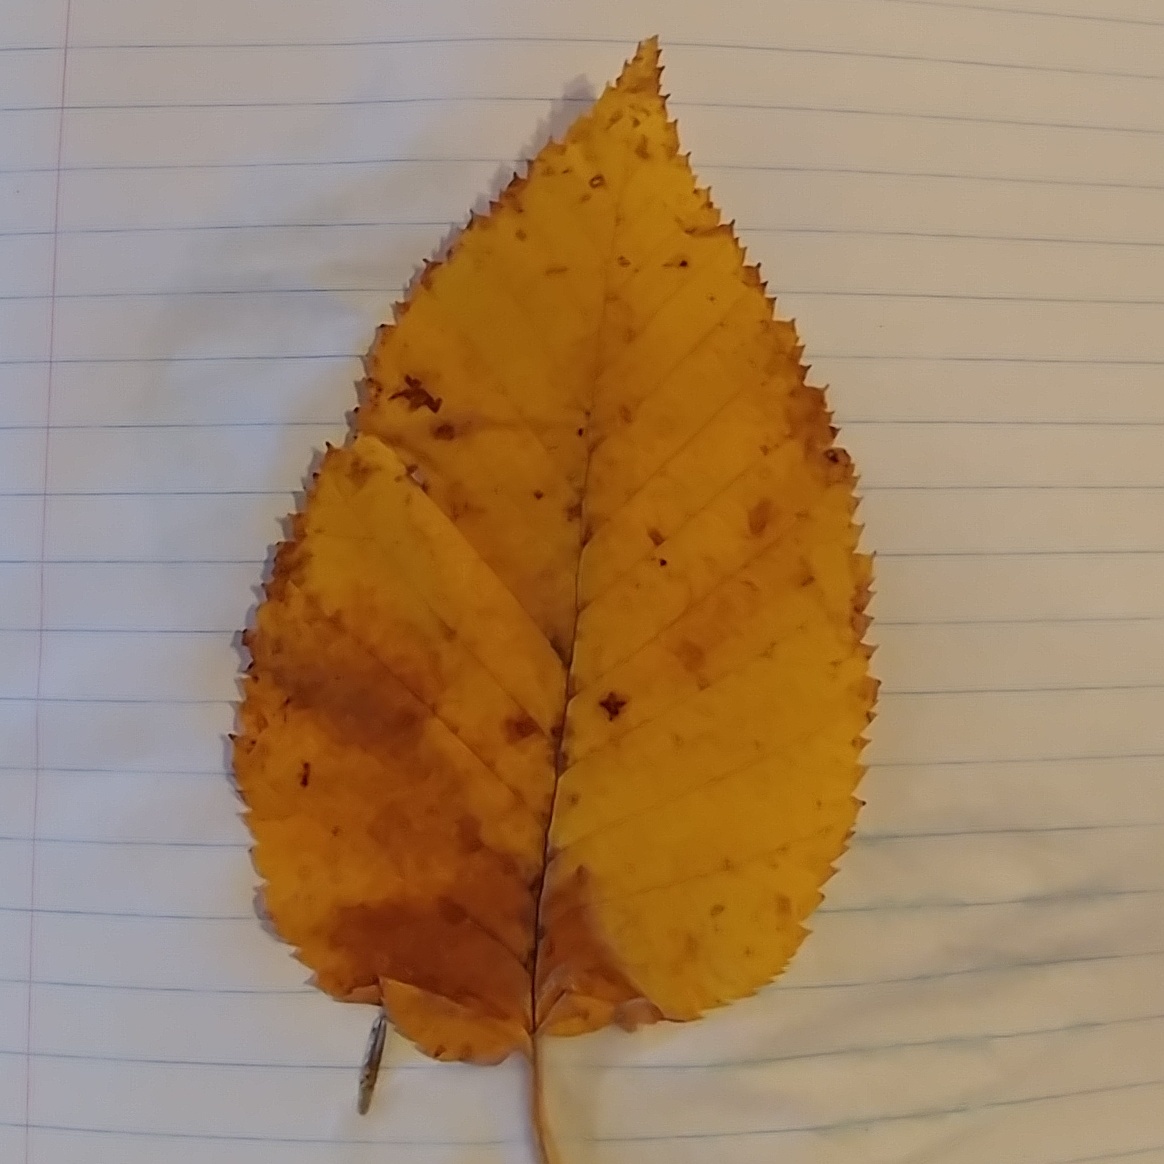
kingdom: Plantae
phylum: Tracheophyta
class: Magnoliopsida
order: Fagales
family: Betulaceae
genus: Betula
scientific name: Betula alleghaniensis
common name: Yellow birch
